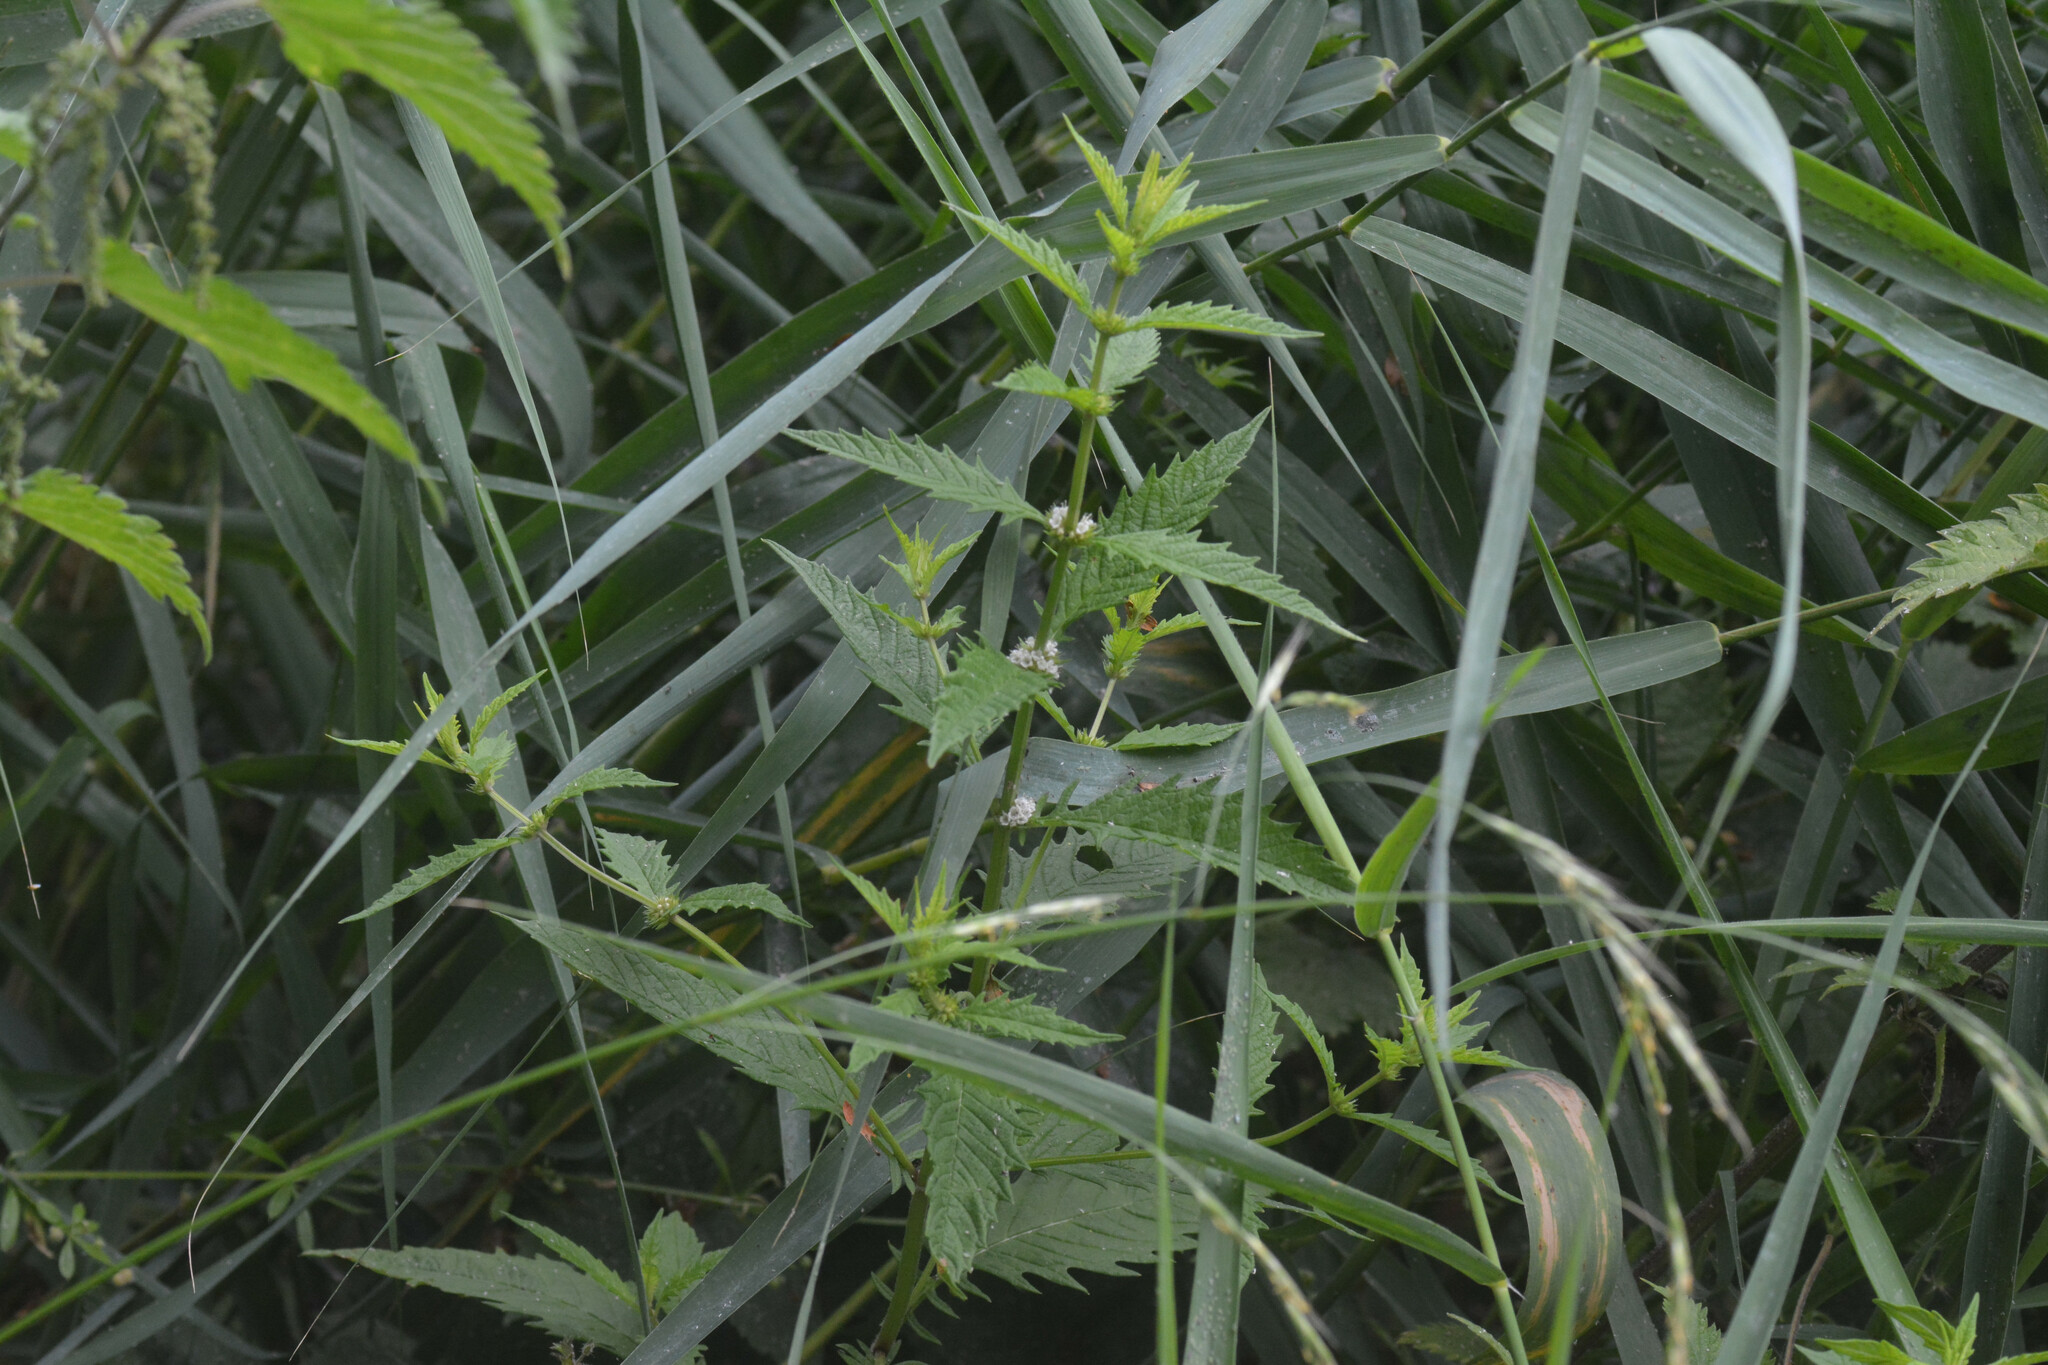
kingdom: Plantae
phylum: Tracheophyta
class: Magnoliopsida
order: Lamiales
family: Lamiaceae
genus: Lycopus
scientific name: Lycopus europaeus
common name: European bugleweed
